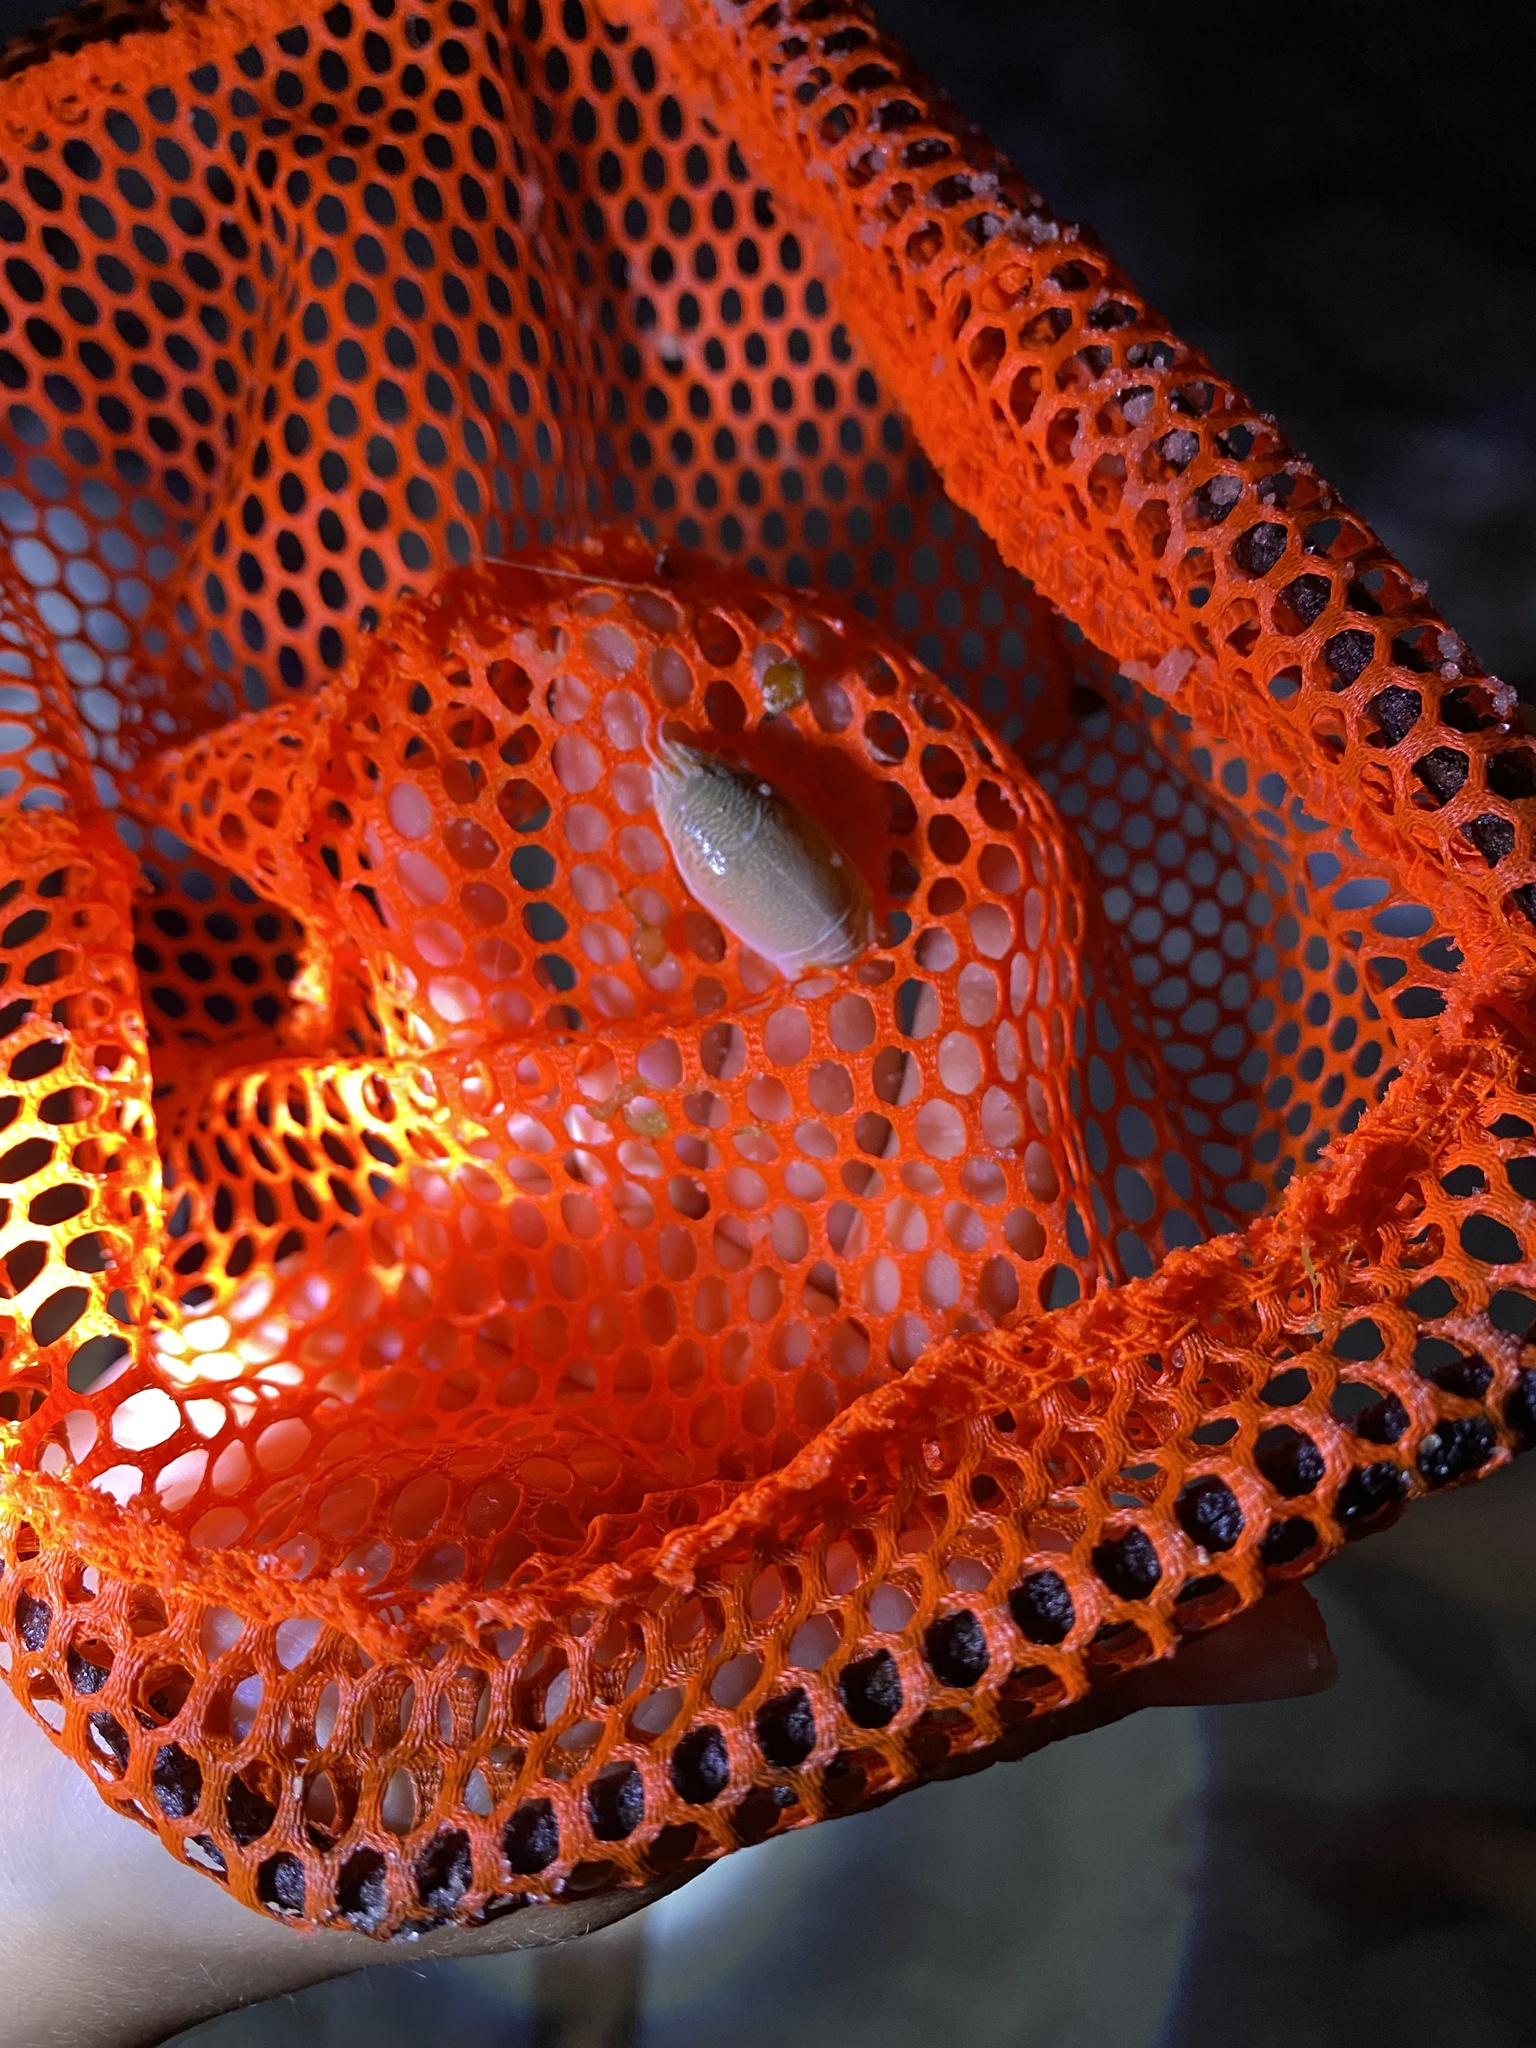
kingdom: Animalia
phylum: Arthropoda
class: Malacostraca
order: Decapoda
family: Hippidae
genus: Emerita
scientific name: Emerita talpoida
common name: Atlantic sand crab
